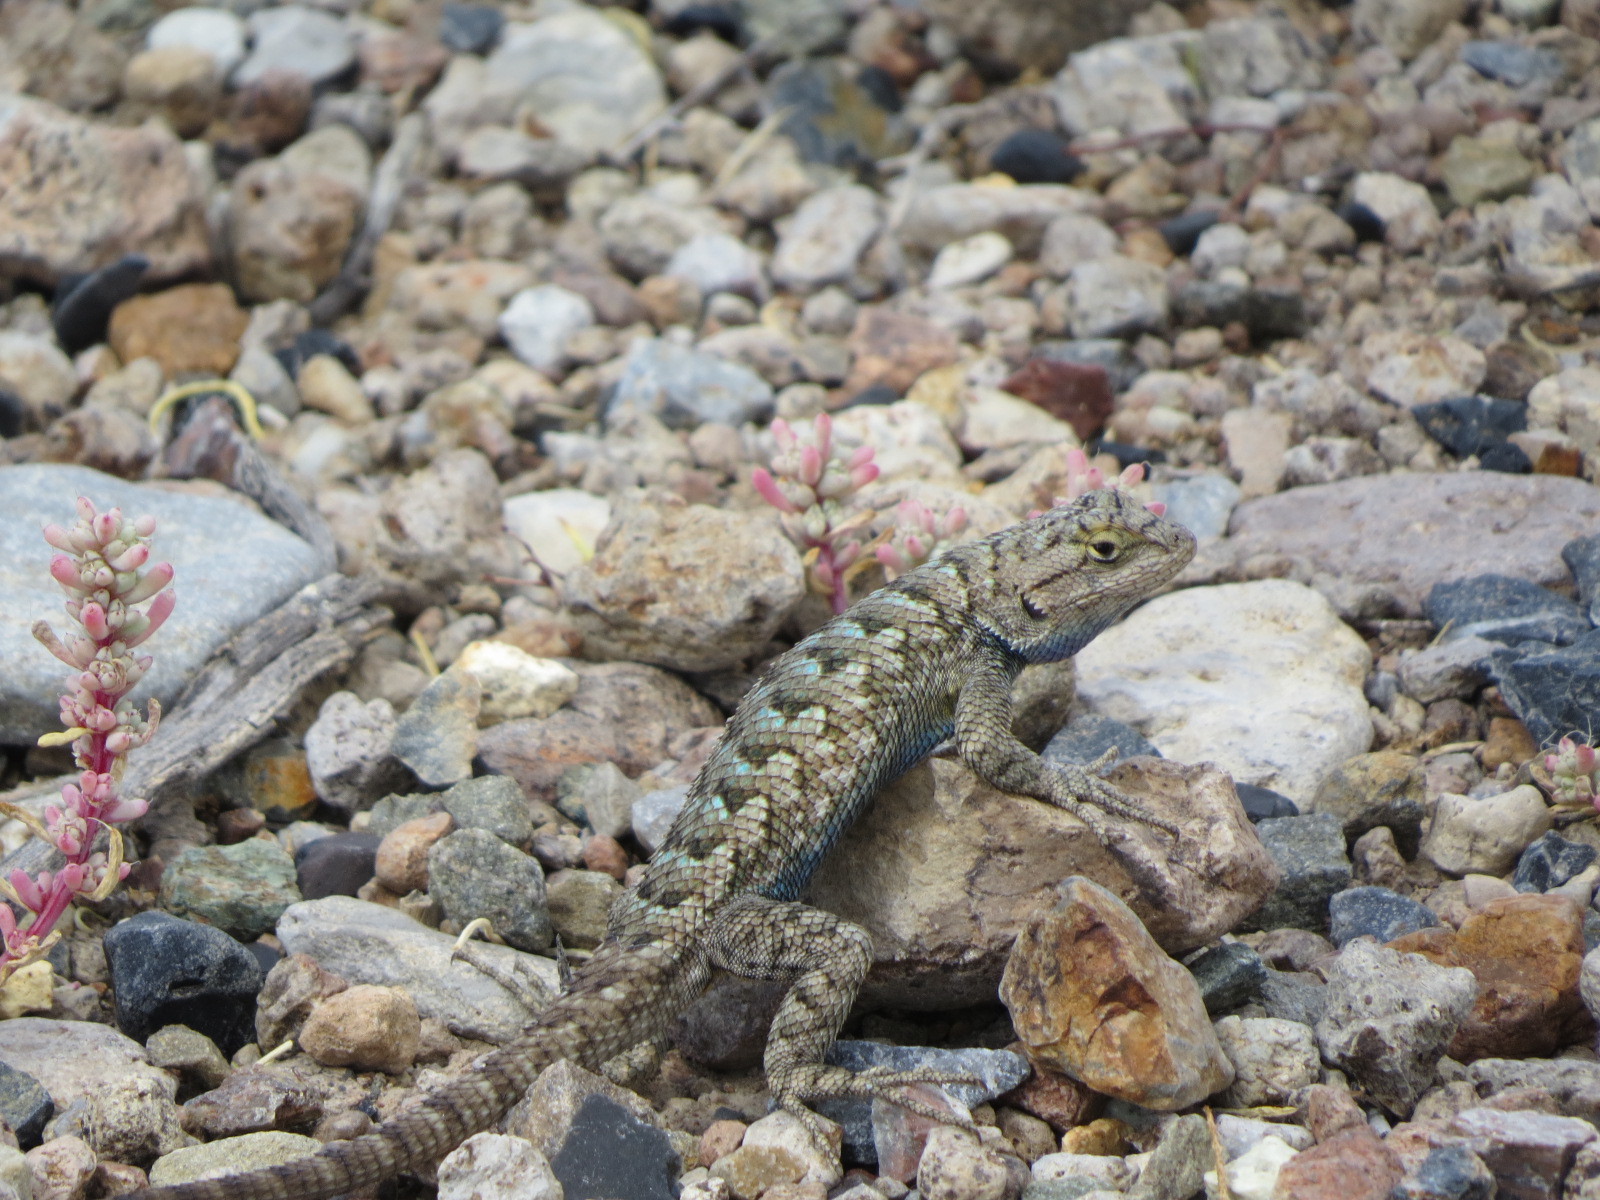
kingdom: Animalia
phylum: Chordata
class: Squamata
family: Phrynosomatidae
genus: Sceloporus
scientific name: Sceloporus occidentalis
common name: Western fence lizard
